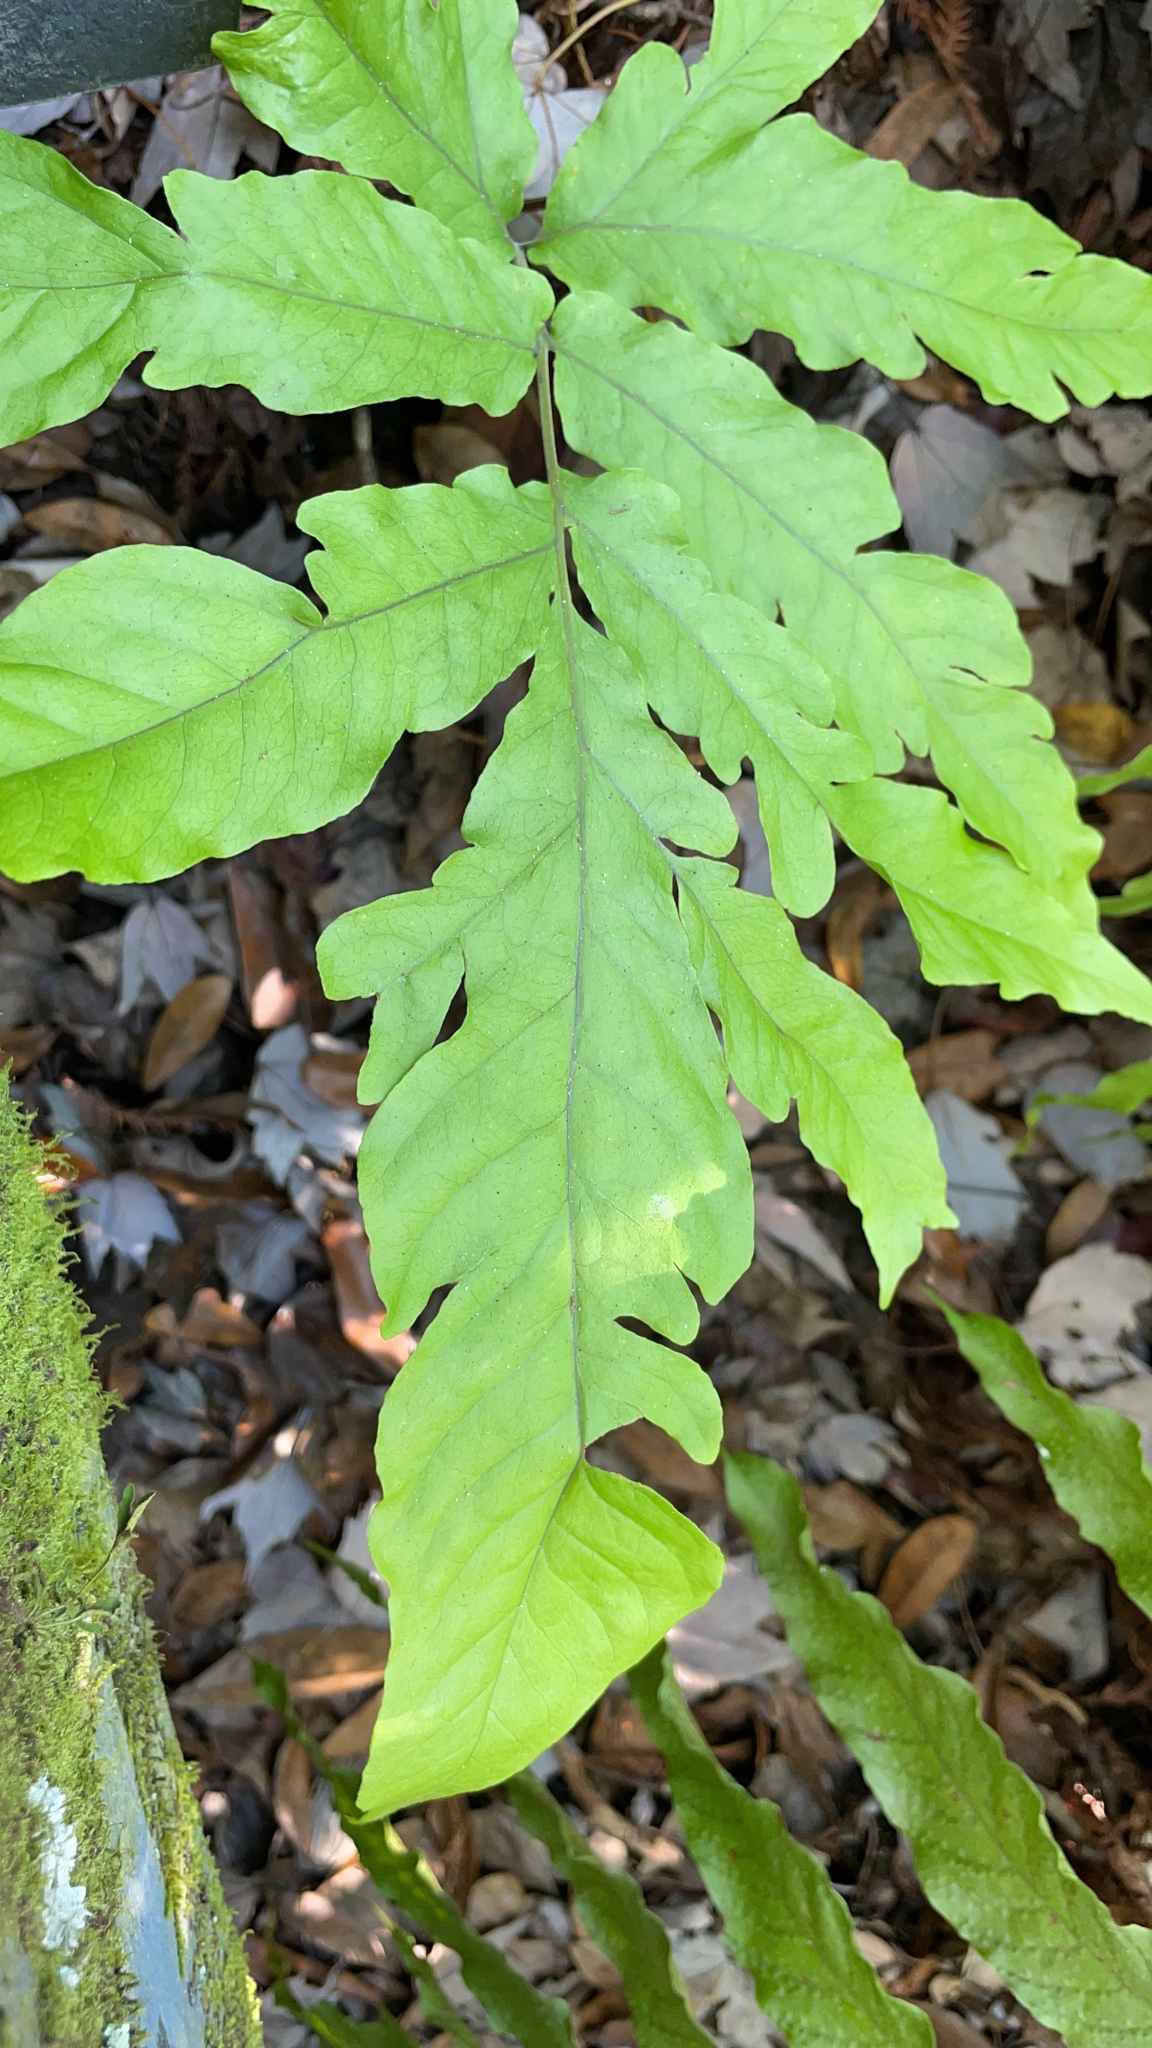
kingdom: Plantae
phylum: Tracheophyta
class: Polypodiopsida
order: Polypodiales
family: Tectariaceae
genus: Tectaria
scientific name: Tectaria incisa
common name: Incised halberd fern
